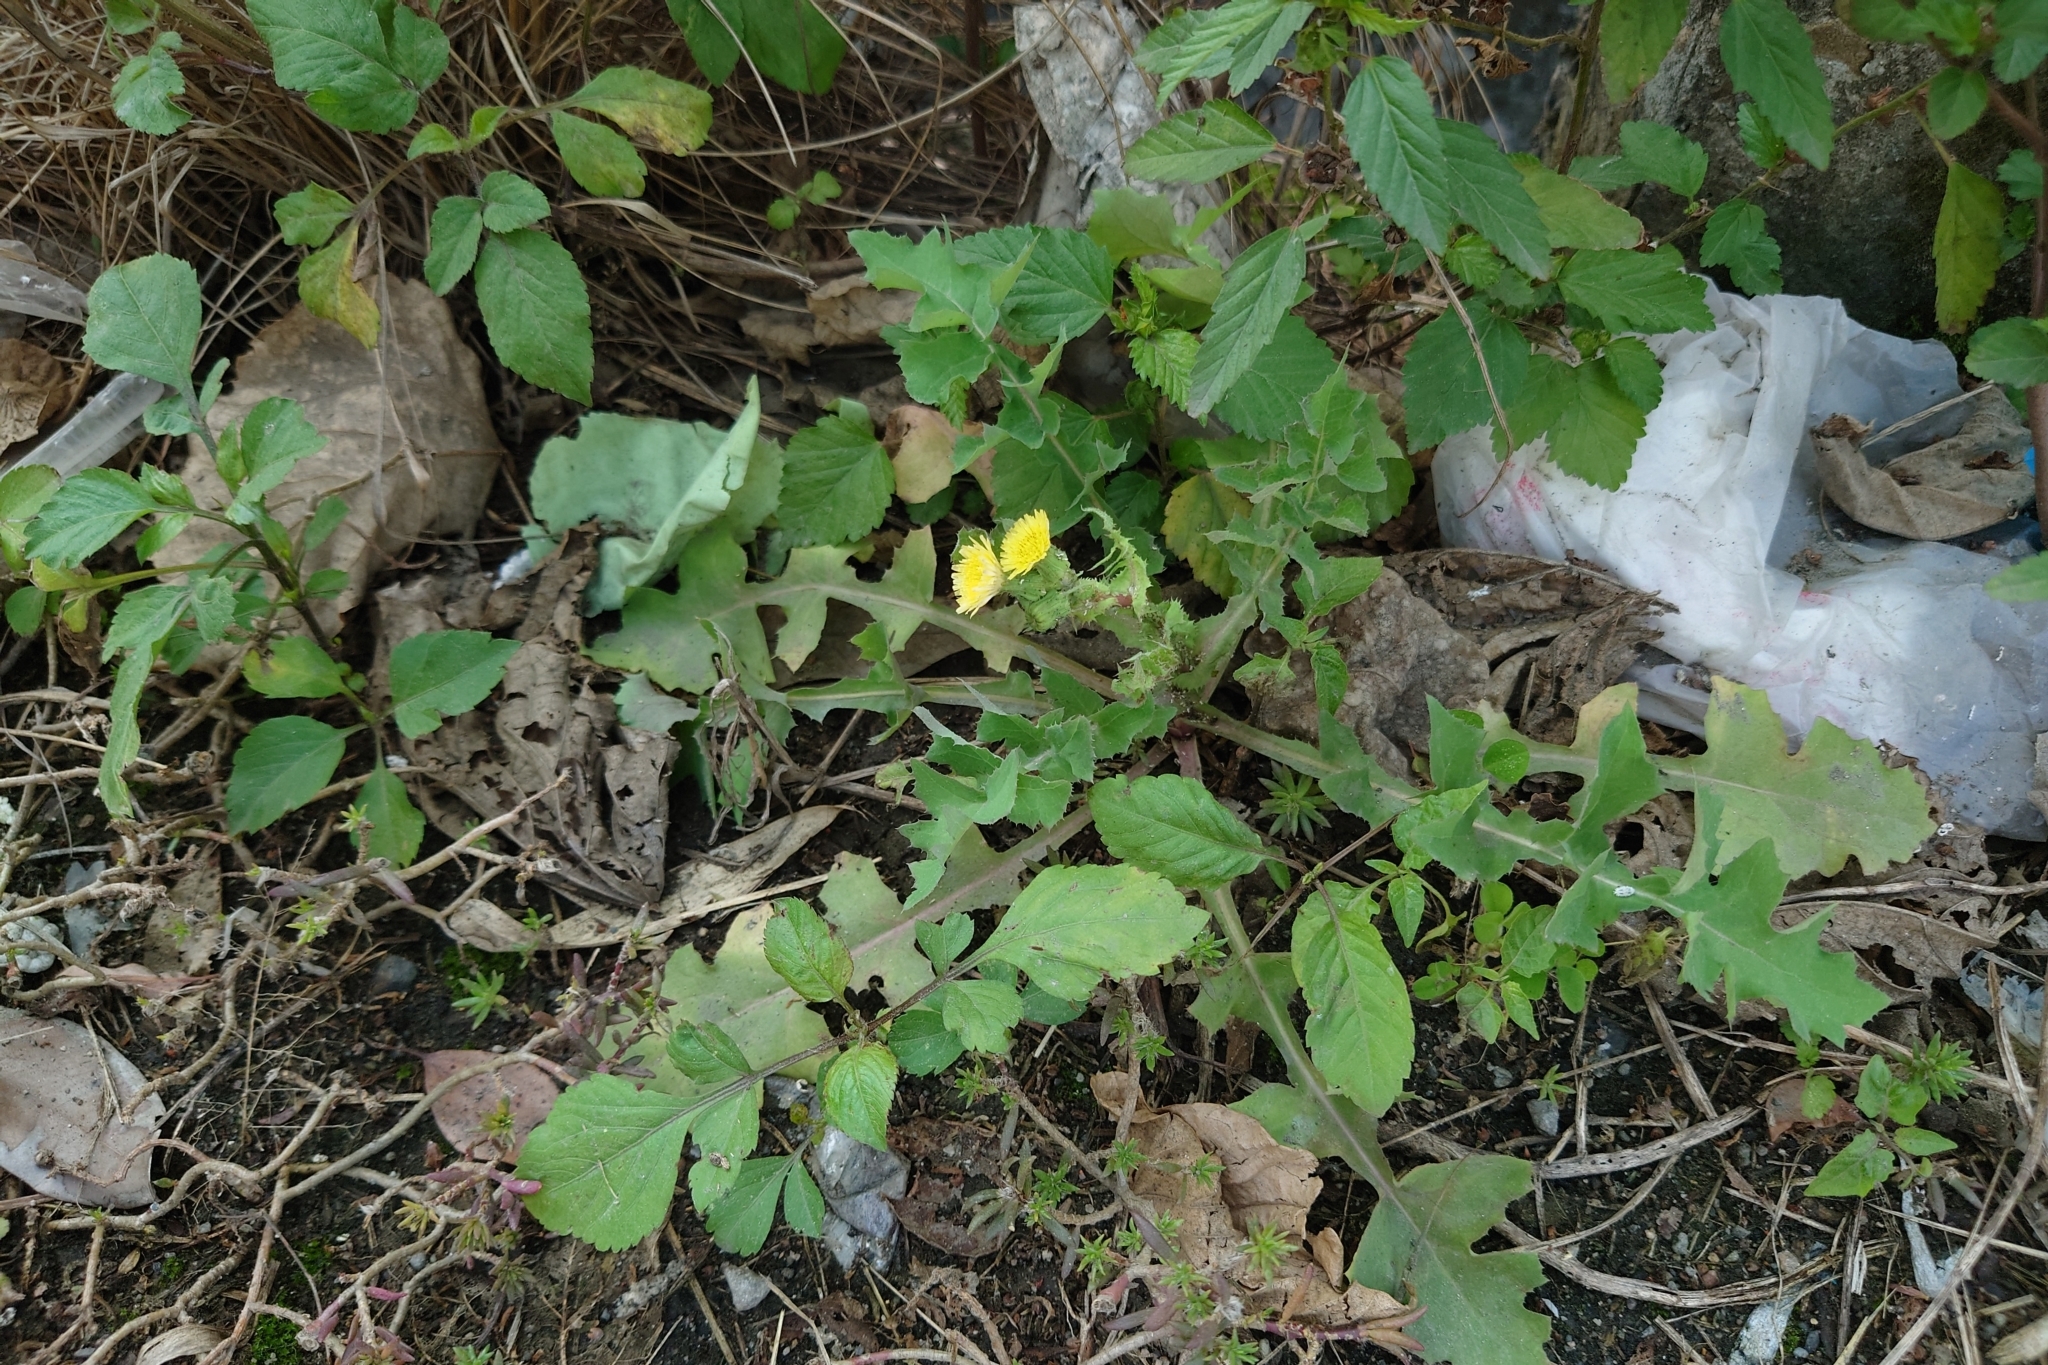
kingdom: Plantae
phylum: Tracheophyta
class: Magnoliopsida
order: Asterales
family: Asteraceae
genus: Sonchus
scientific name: Sonchus oleraceus
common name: Common sowthistle
